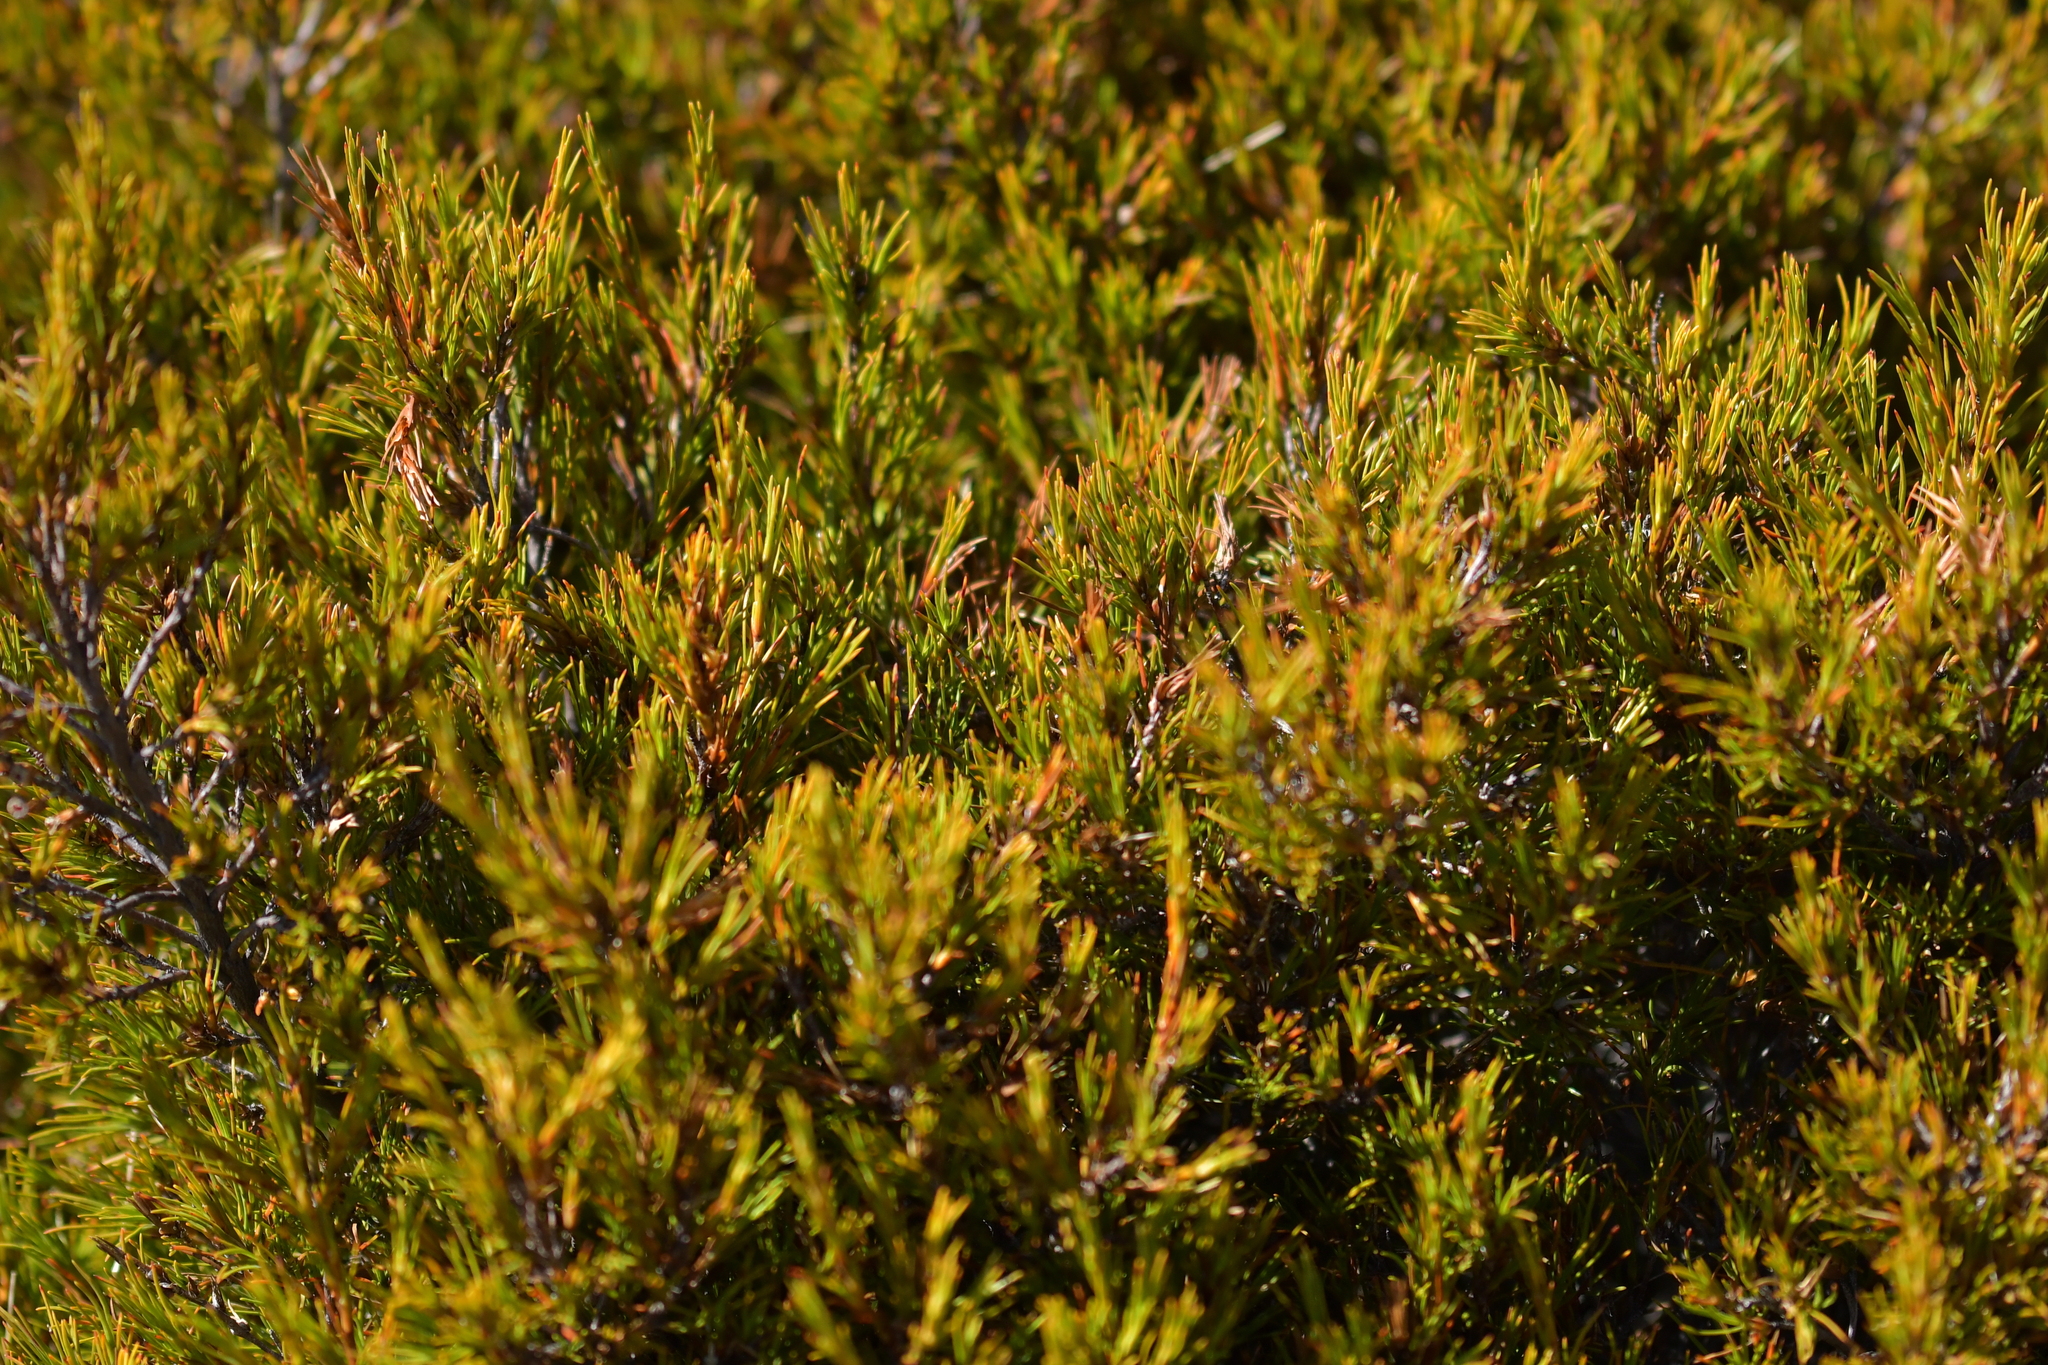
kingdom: Plantae
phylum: Tracheophyta
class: Magnoliopsida
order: Ericales
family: Ericaceae
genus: Dracophyllum
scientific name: Dracophyllum rosmarinifolium
